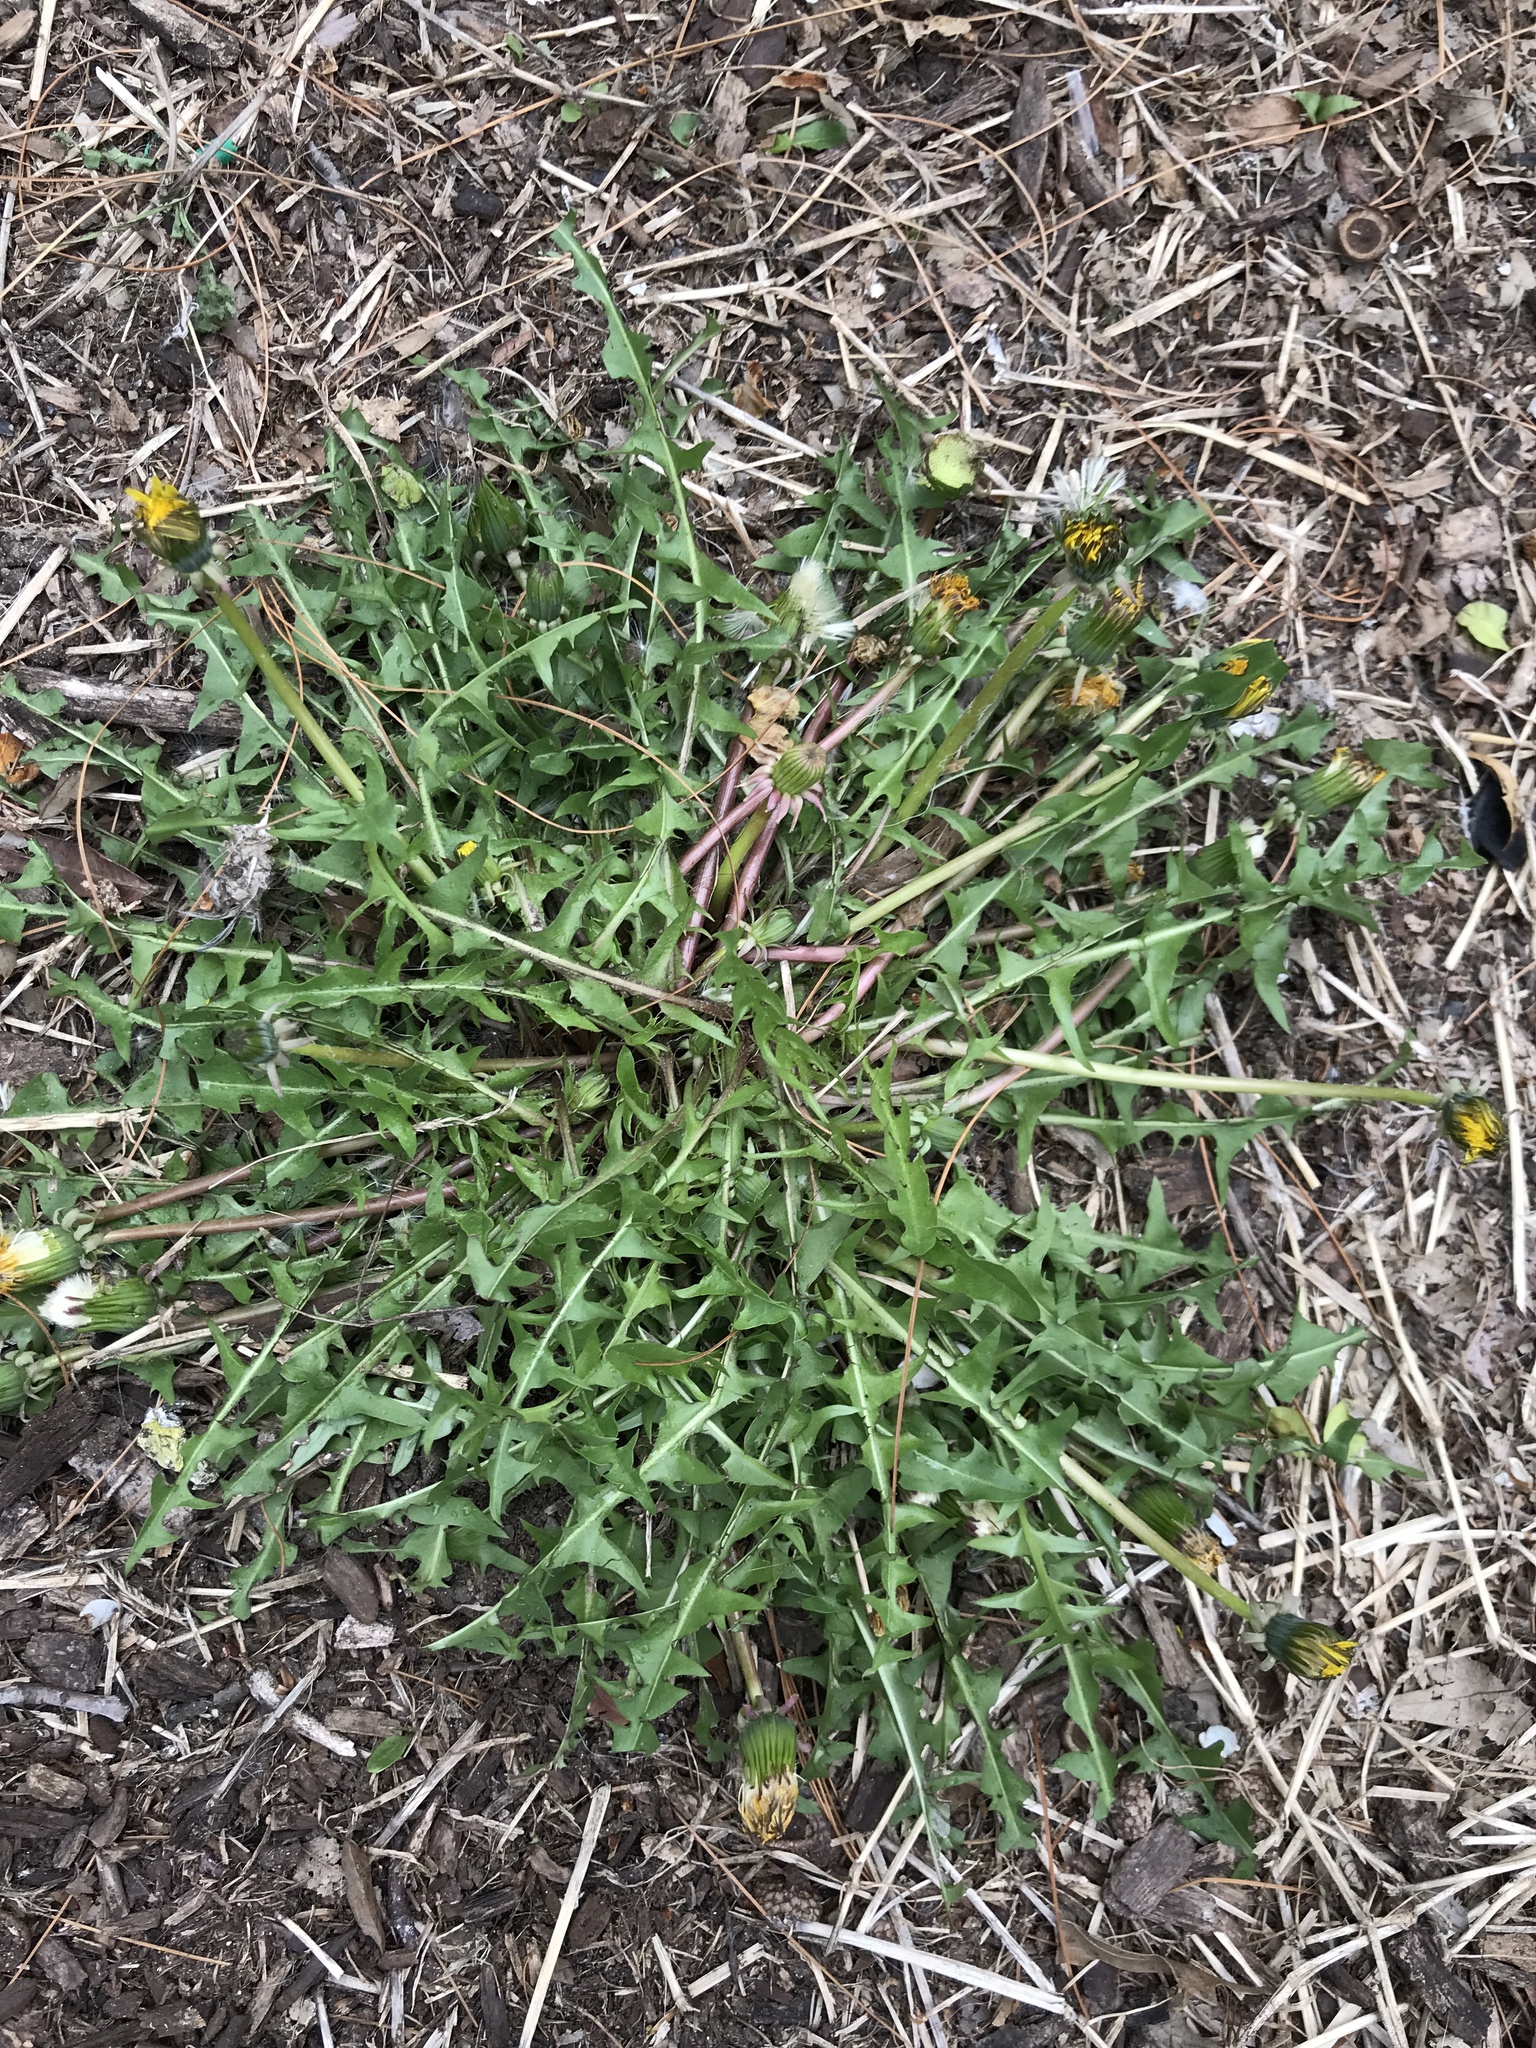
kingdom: Plantae
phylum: Tracheophyta
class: Magnoliopsida
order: Asterales
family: Asteraceae
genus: Taraxacum
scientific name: Taraxacum
